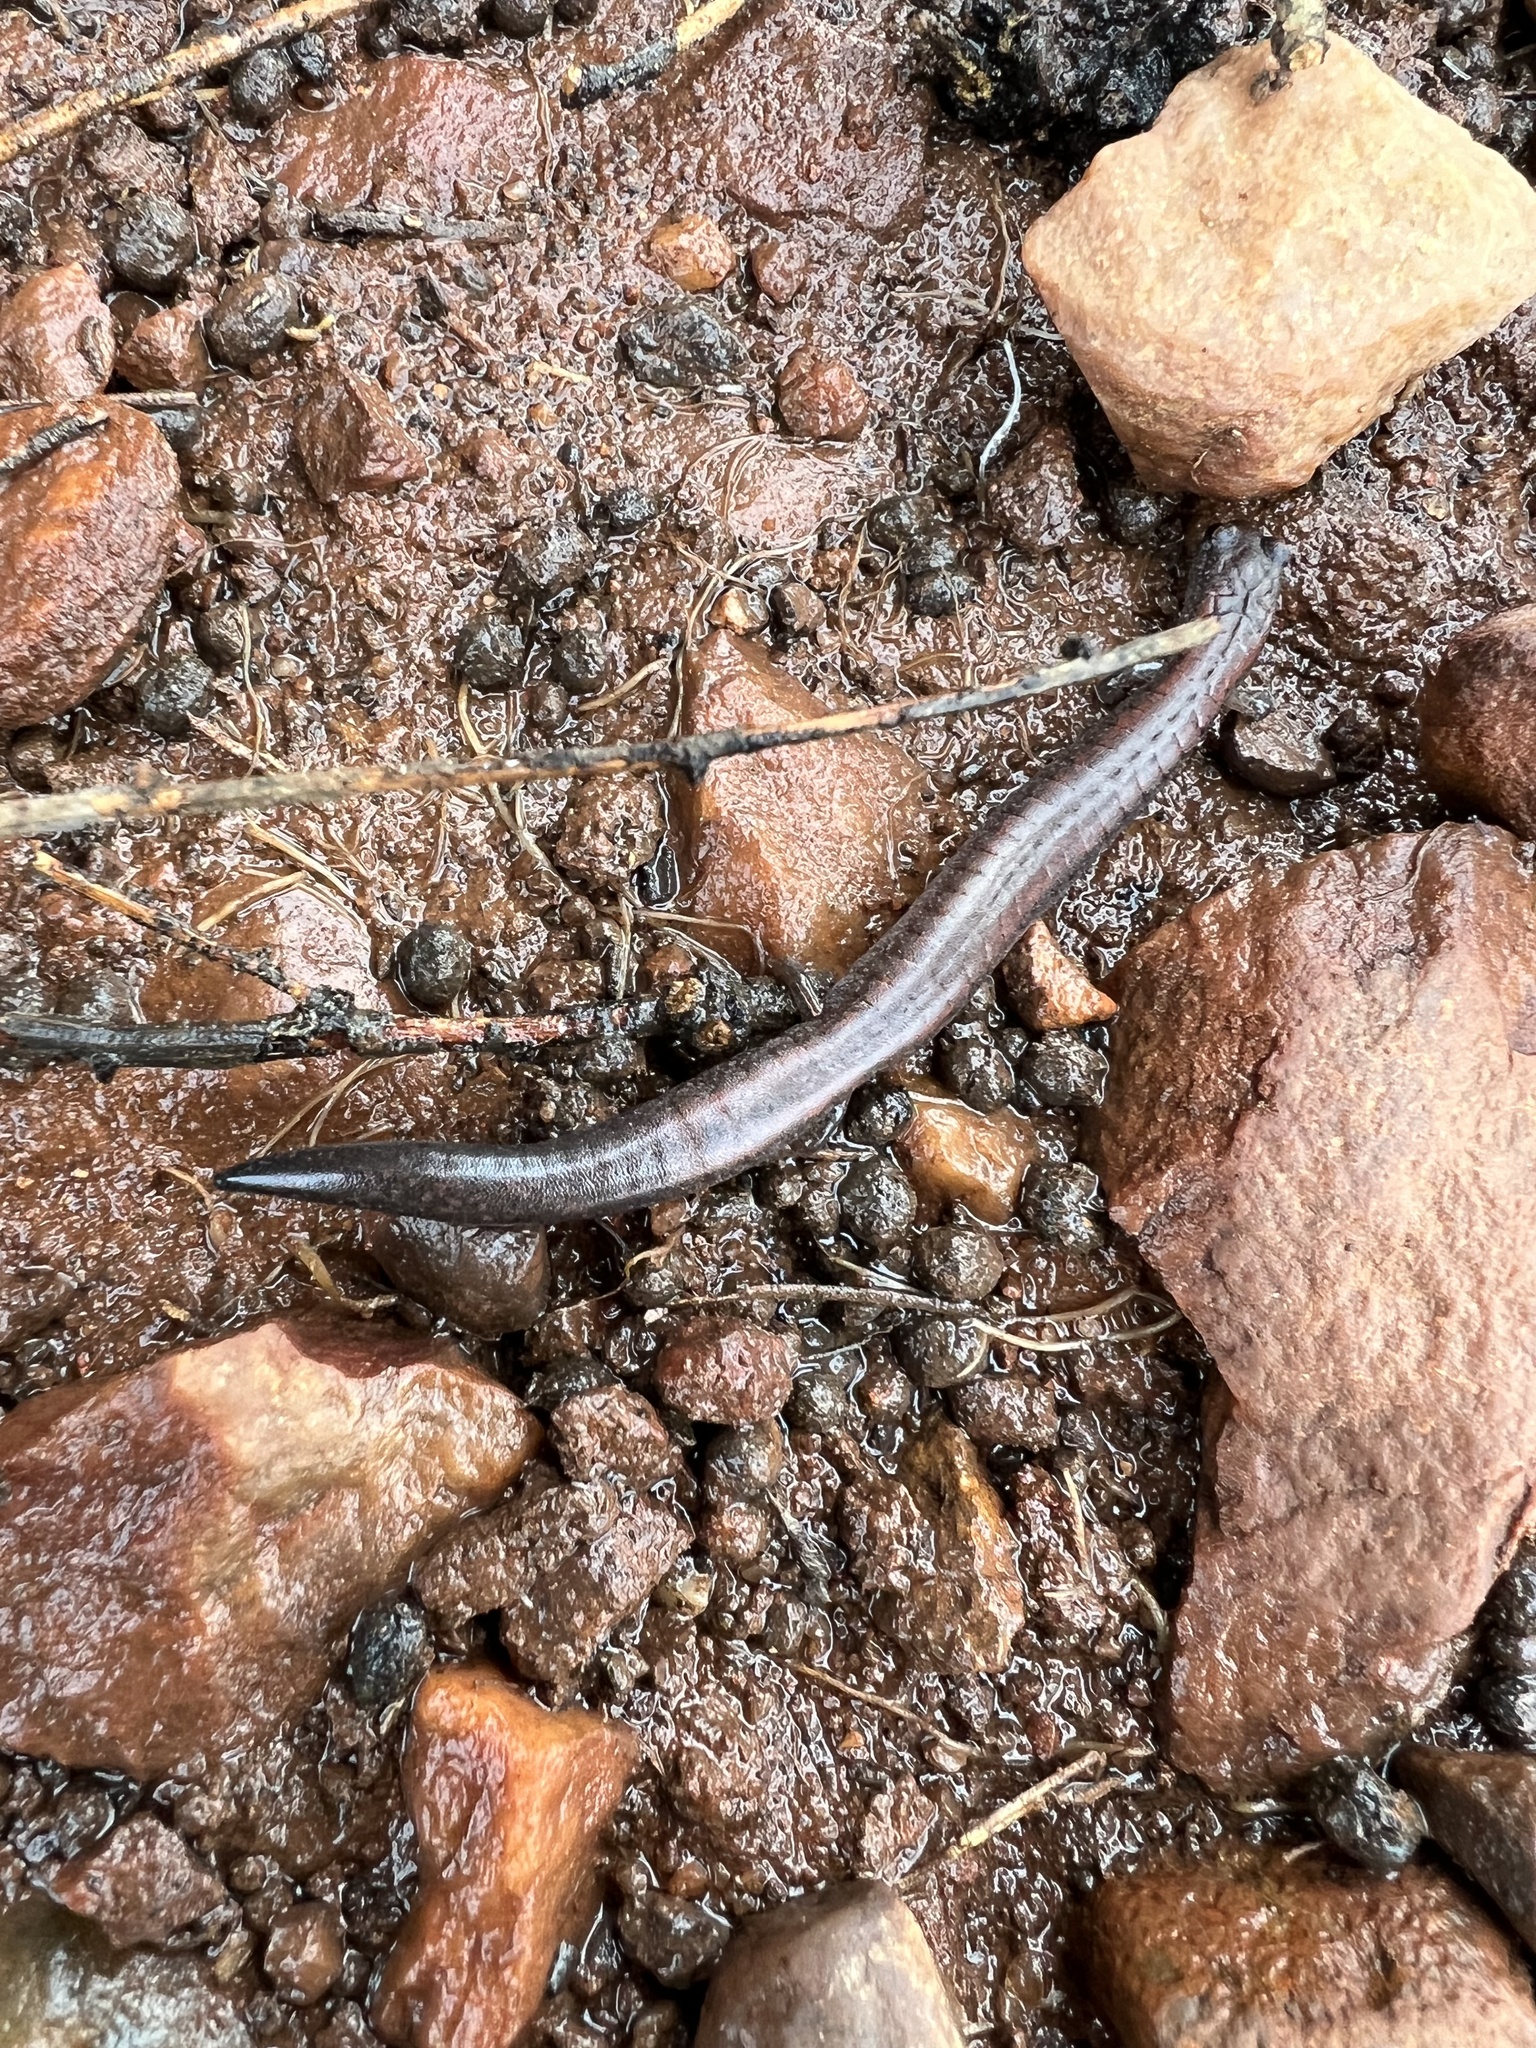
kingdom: Animalia
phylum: Chordata
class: Amphibia
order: Caudata
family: Plethodontidae
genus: Batrachoseps
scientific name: Batrachoseps major
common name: Garden slender salamander
